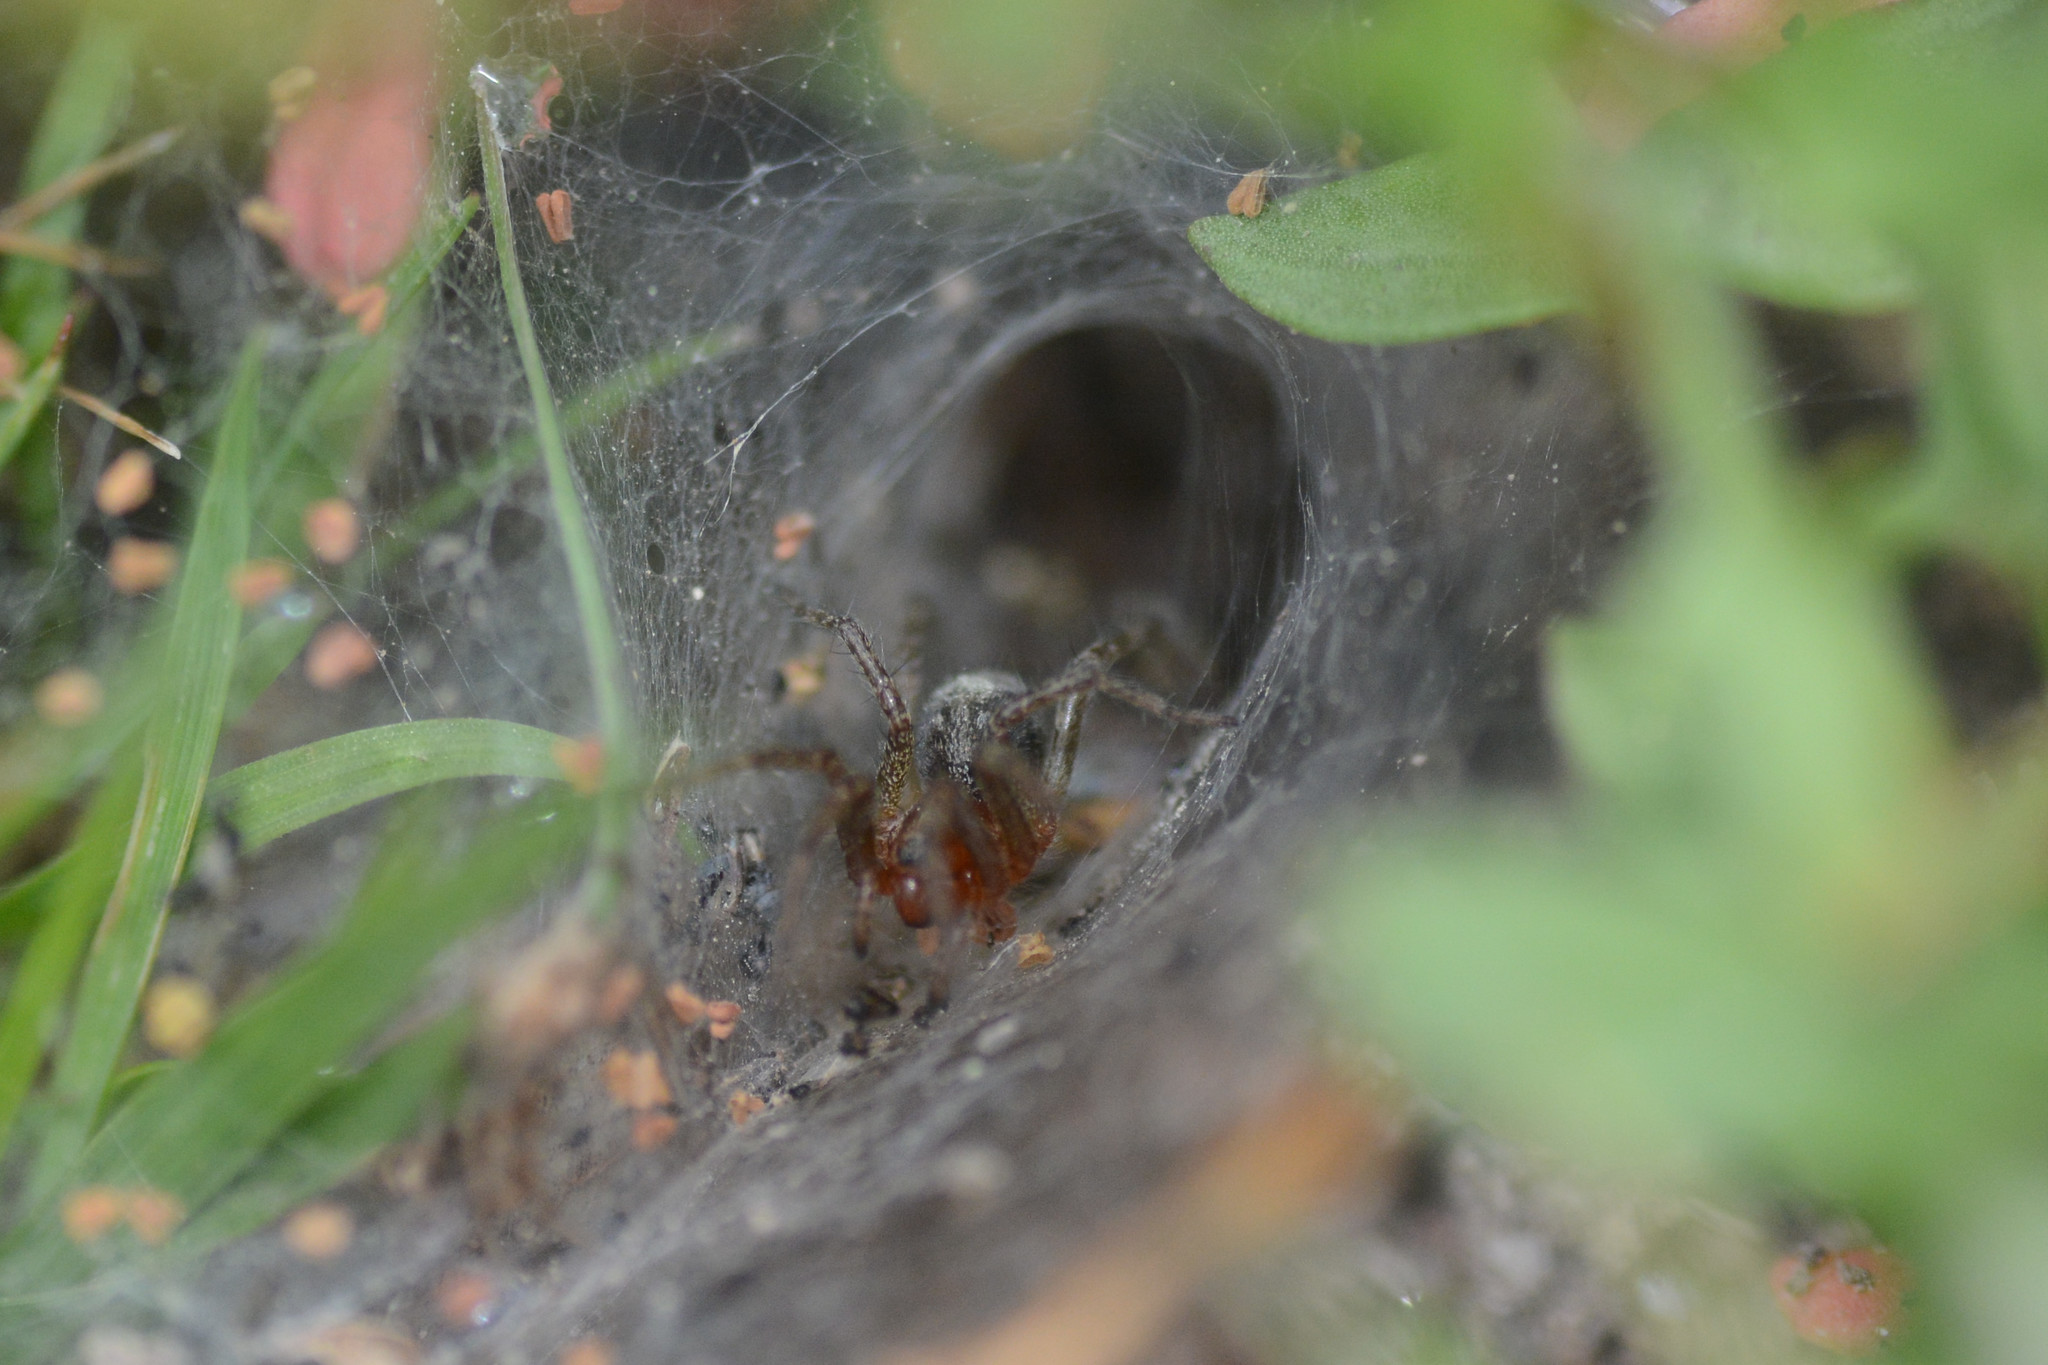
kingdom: Animalia
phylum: Arthropoda
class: Arachnida
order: Araneae
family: Agelenidae
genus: Agelena
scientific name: Agelena labyrinthica
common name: Labyrinth spider
